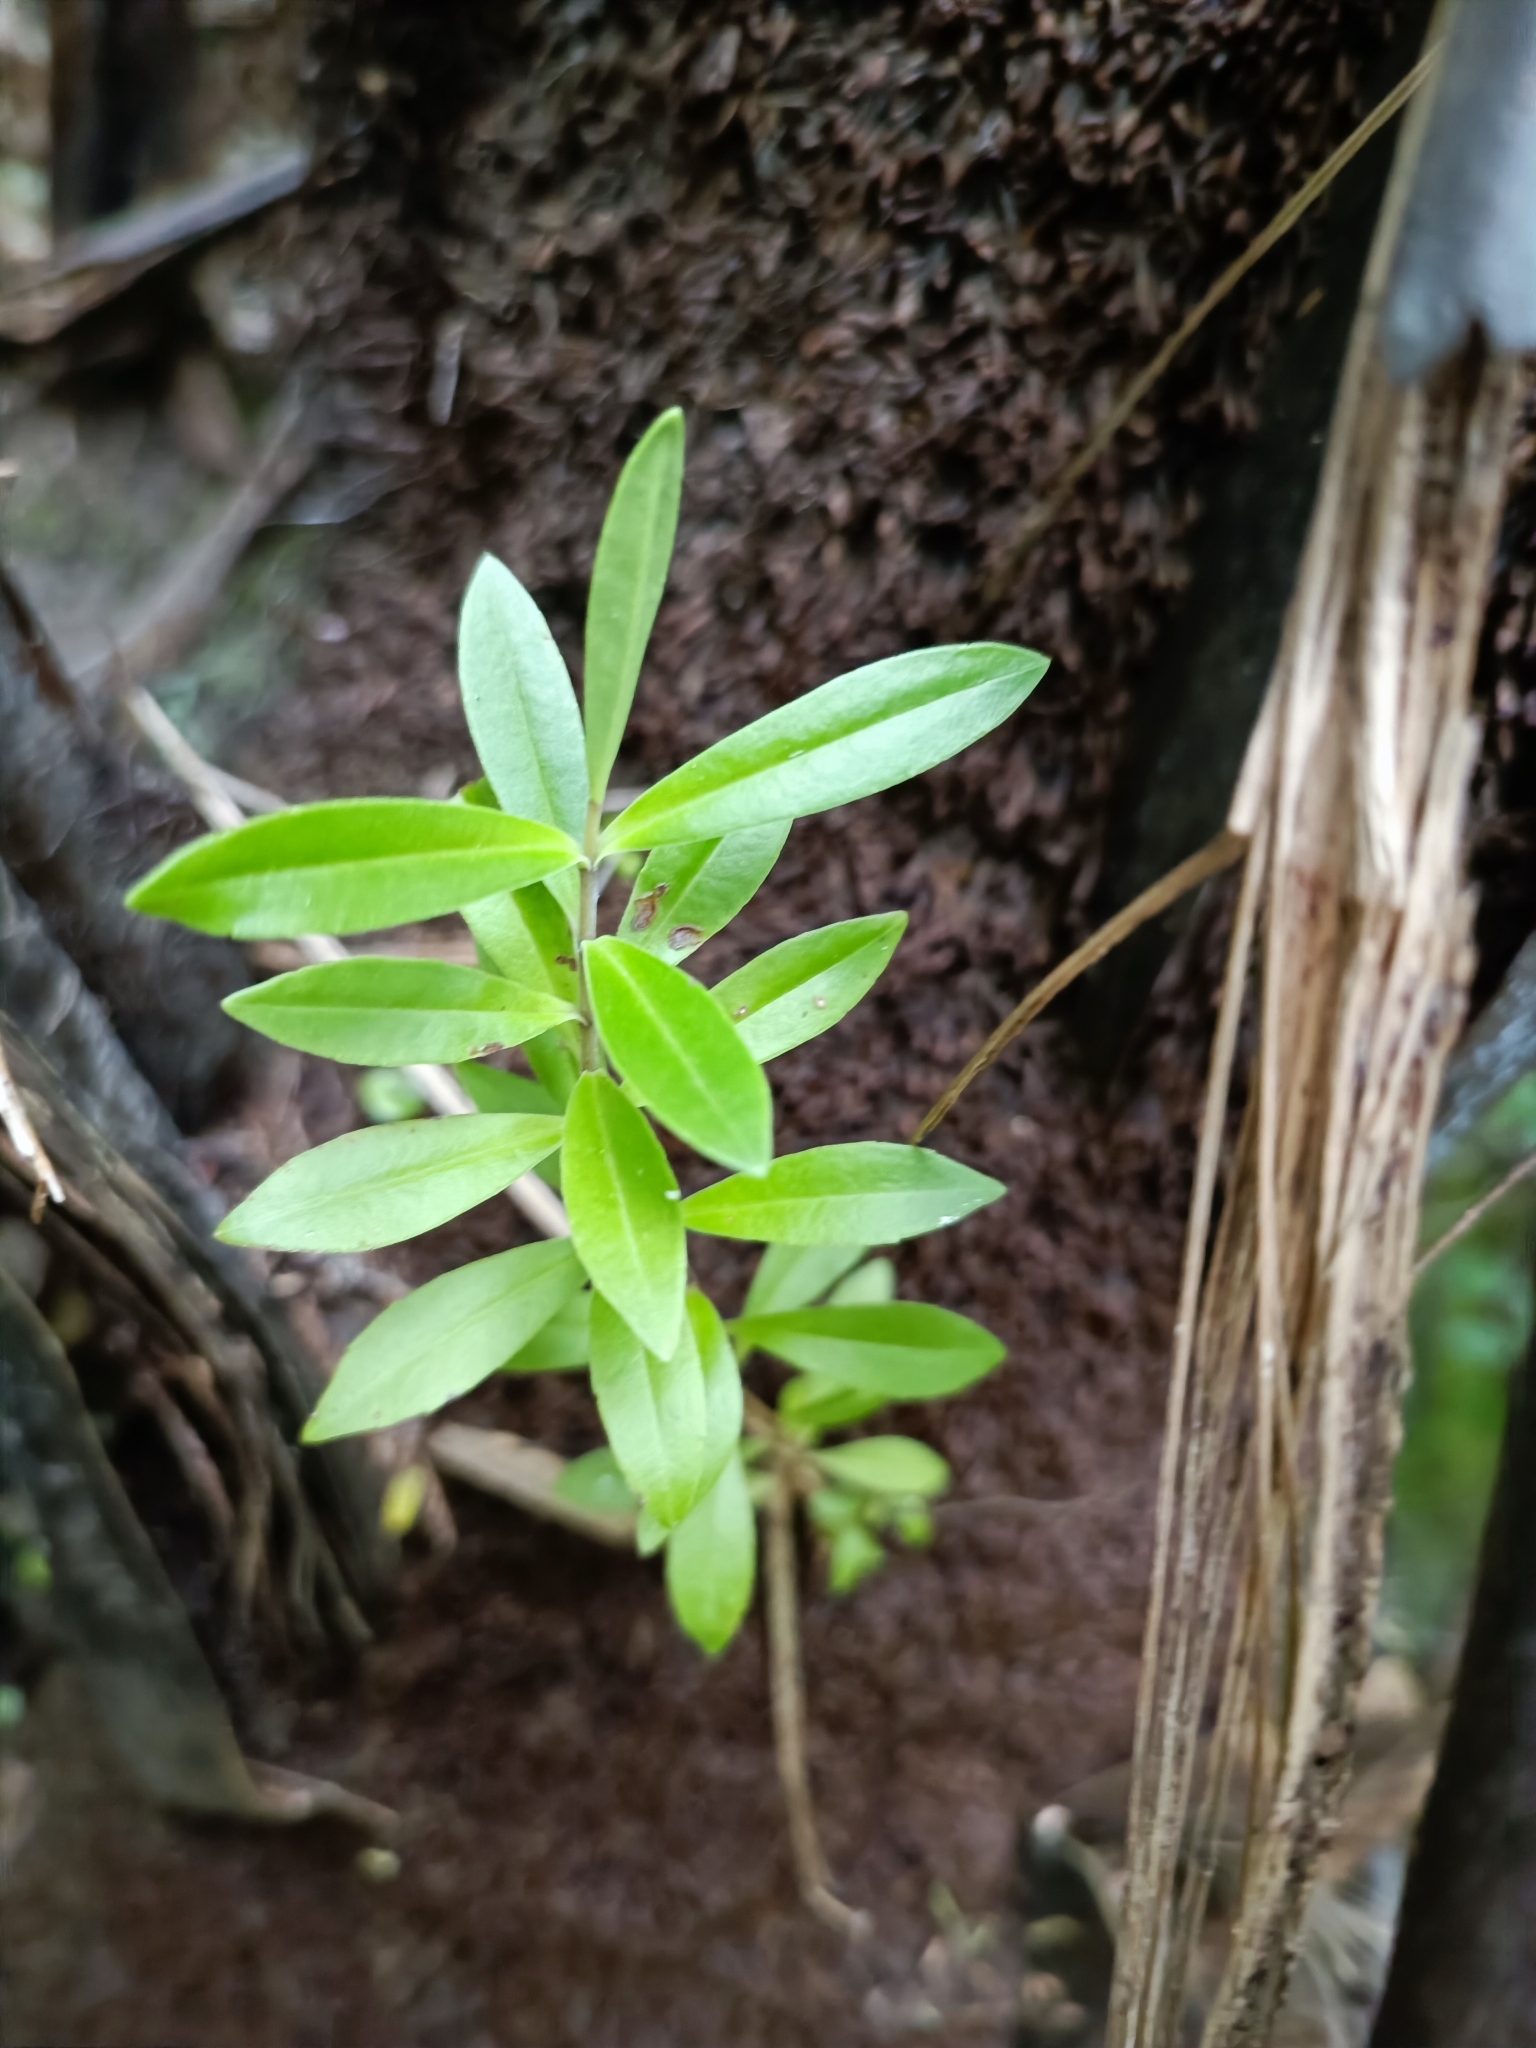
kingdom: Plantae
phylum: Tracheophyta
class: Magnoliopsida
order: Lamiales
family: Plantaginaceae
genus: Veronica
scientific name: Veronica stricta
